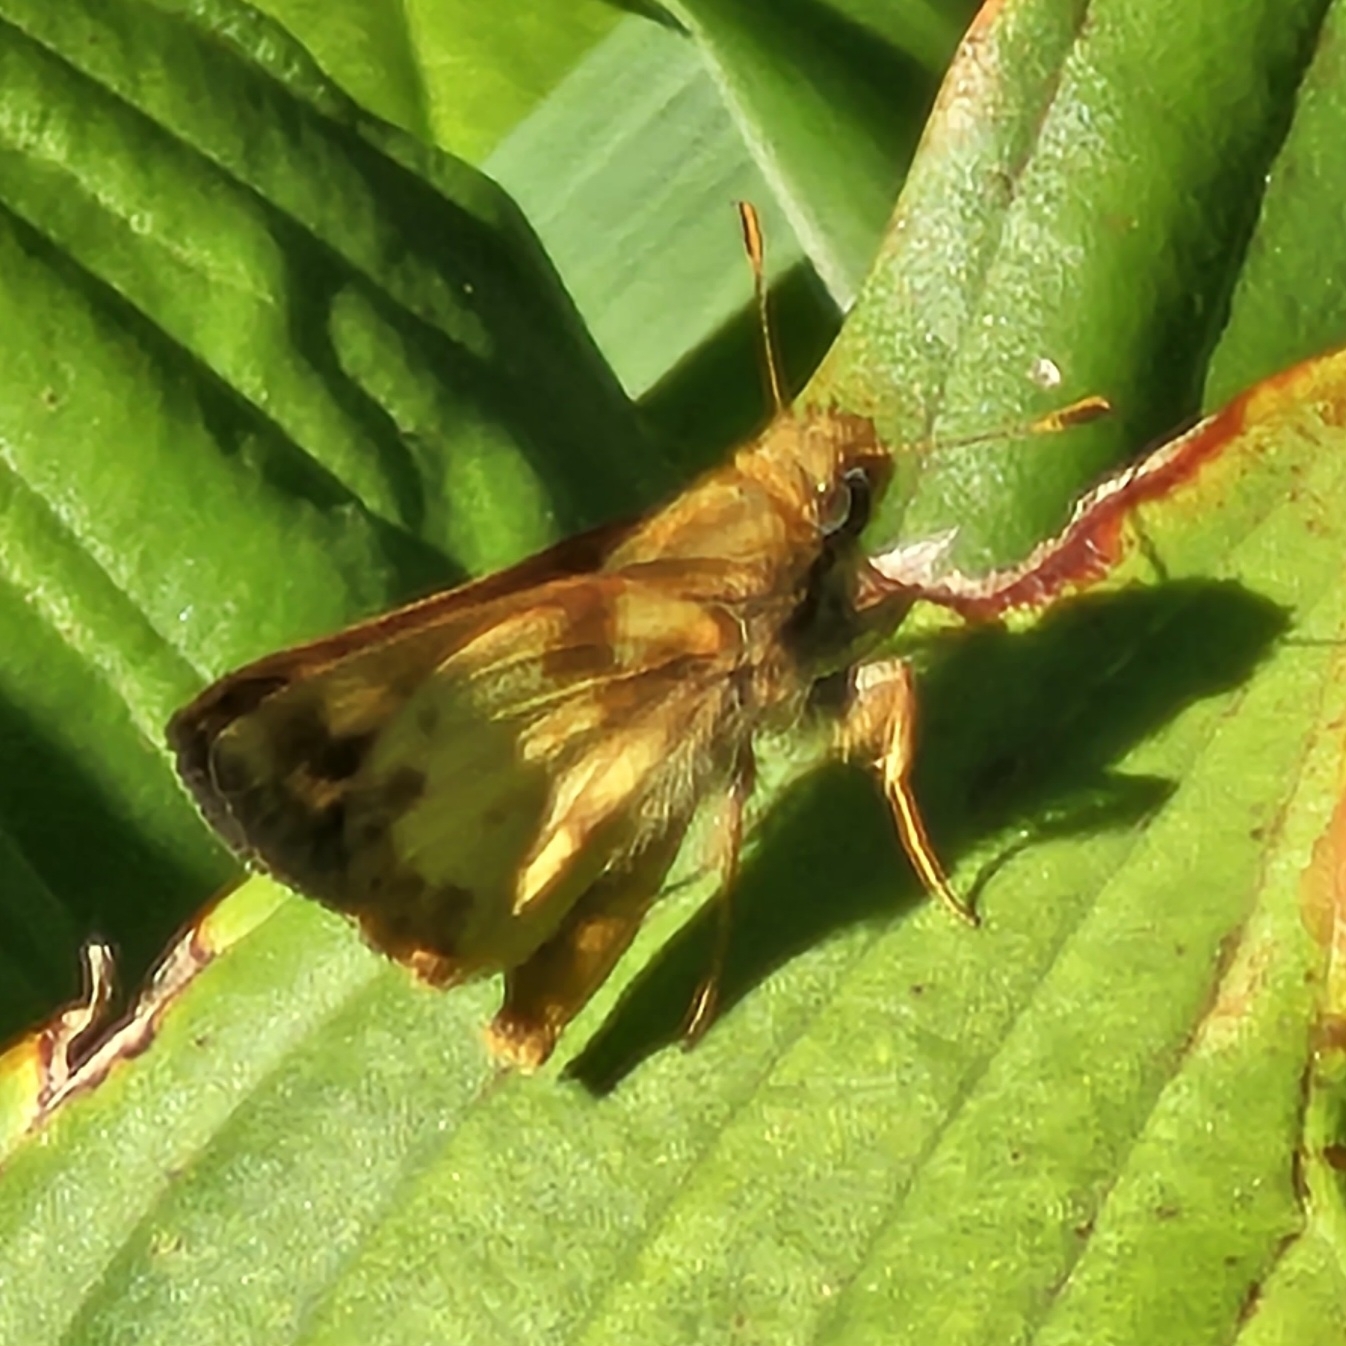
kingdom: Animalia
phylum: Arthropoda
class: Insecta
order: Lepidoptera
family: Hesperiidae
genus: Lon
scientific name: Lon zabulon
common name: Zabulon skipper
